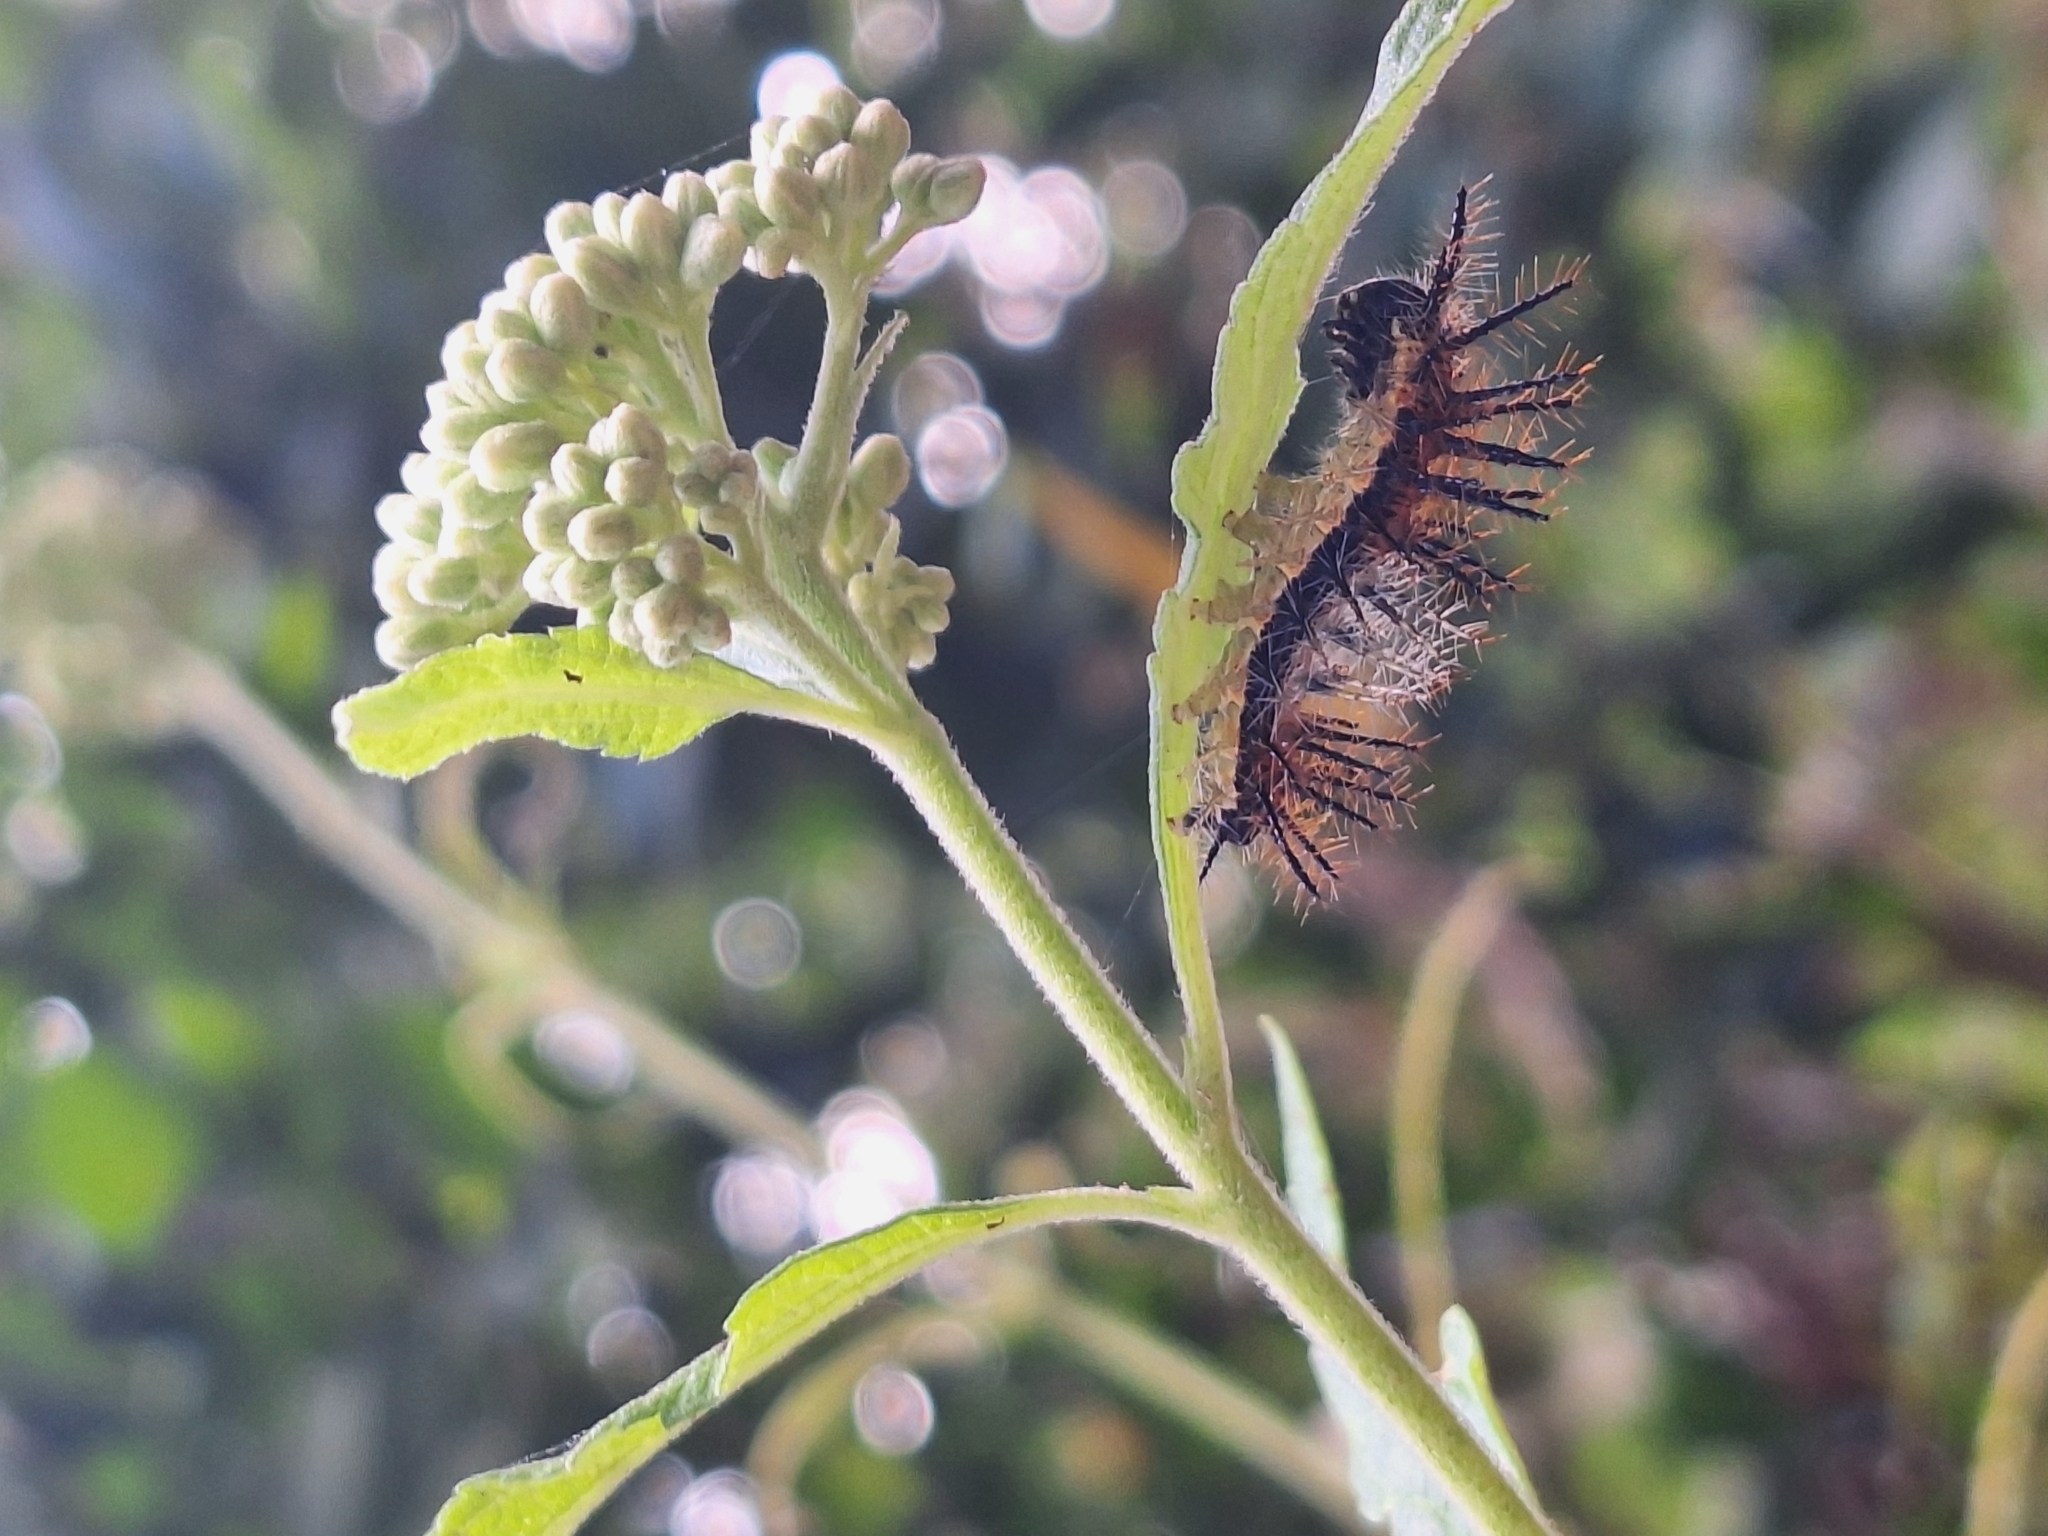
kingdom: Animalia
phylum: Arthropoda
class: Insecta
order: Lepidoptera
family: Nymphalidae
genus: Actinote
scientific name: Actinote pellenea
